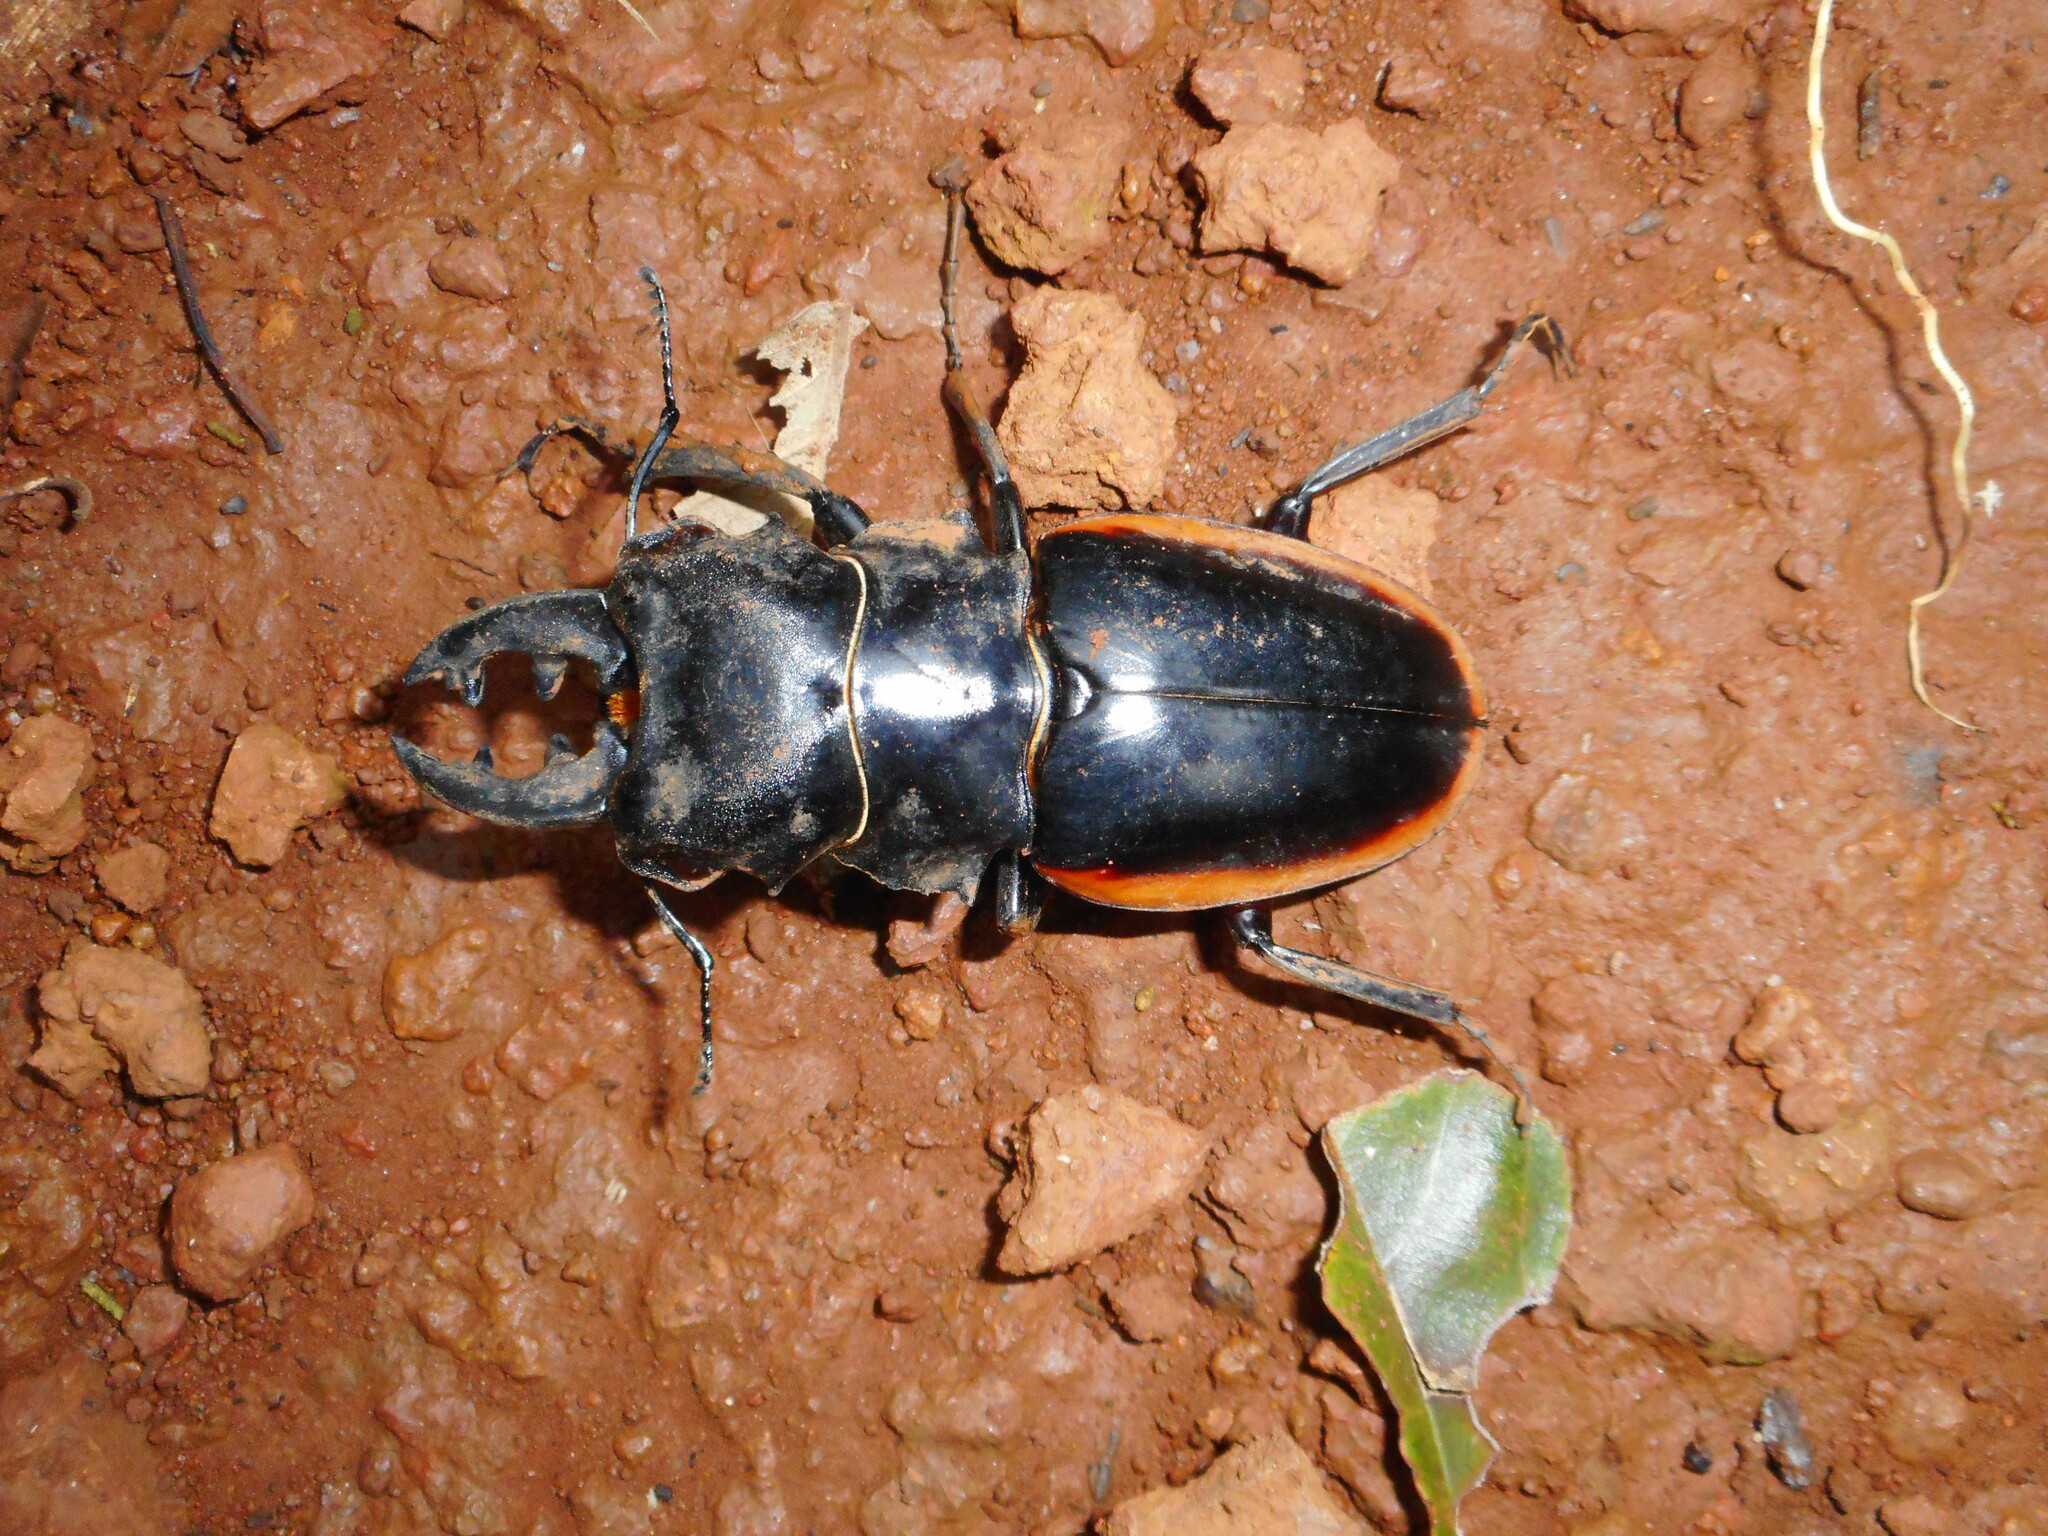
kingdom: Animalia
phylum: Arthropoda
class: Insecta
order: Coleoptera
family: Lucanidae
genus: Odontolabis
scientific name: Odontolabis cuvera
